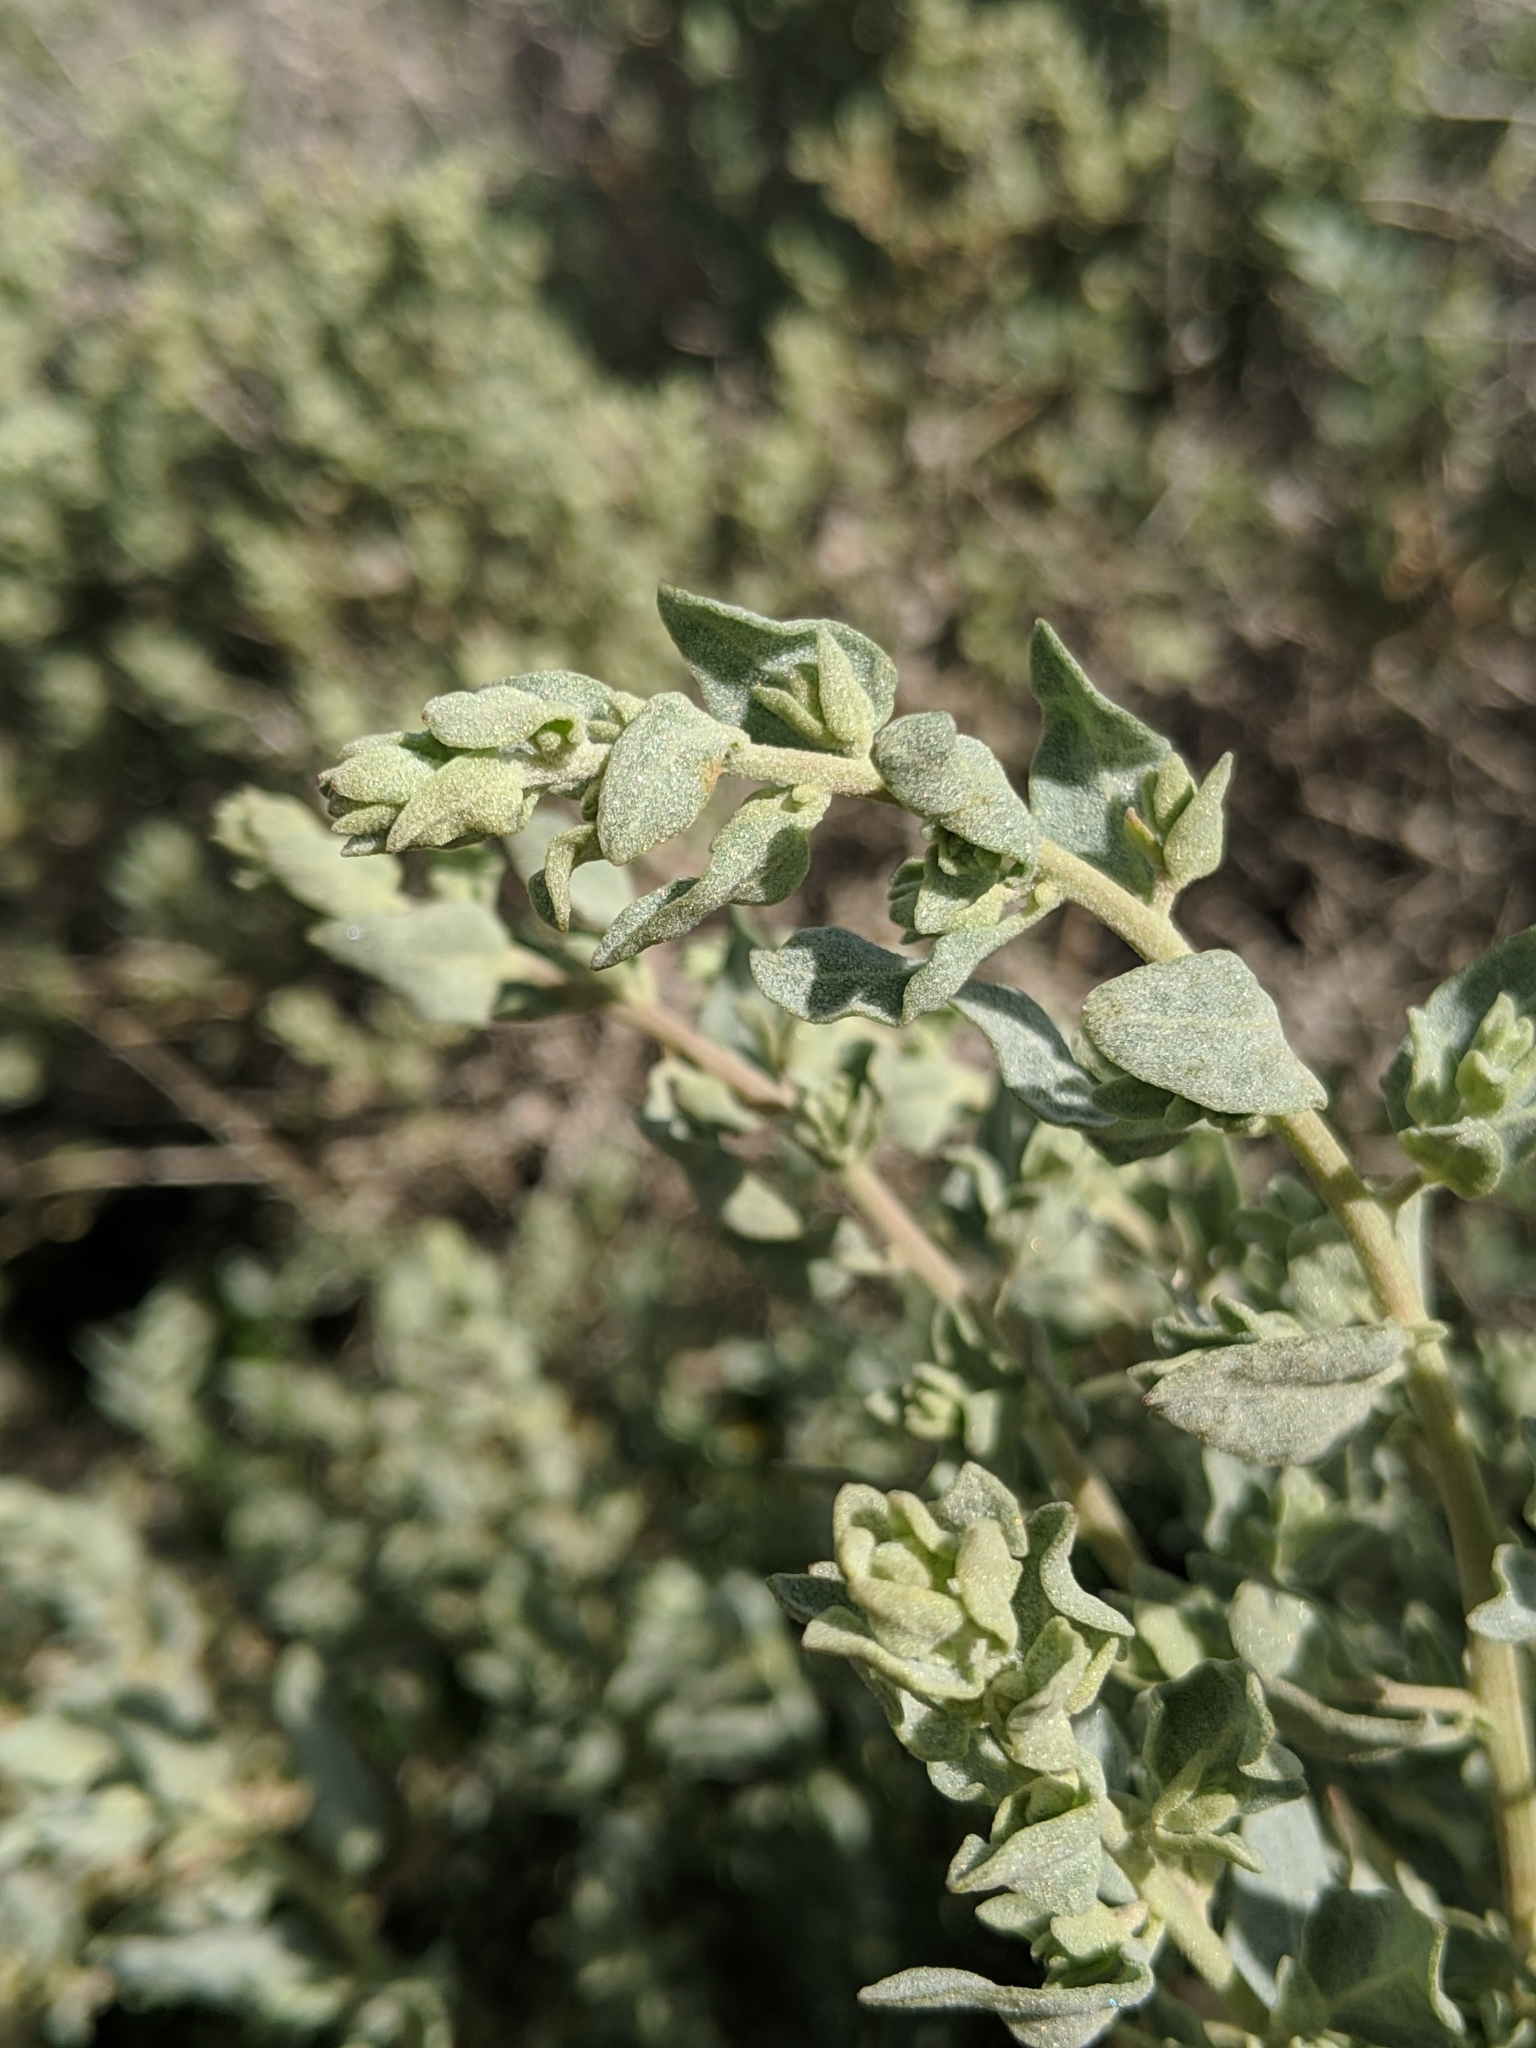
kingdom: Plantae
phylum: Tracheophyta
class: Magnoliopsida
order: Caryophyllales
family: Amaranthaceae
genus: Atriplex
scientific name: Atriplex spinifera
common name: Spiny saltbush
